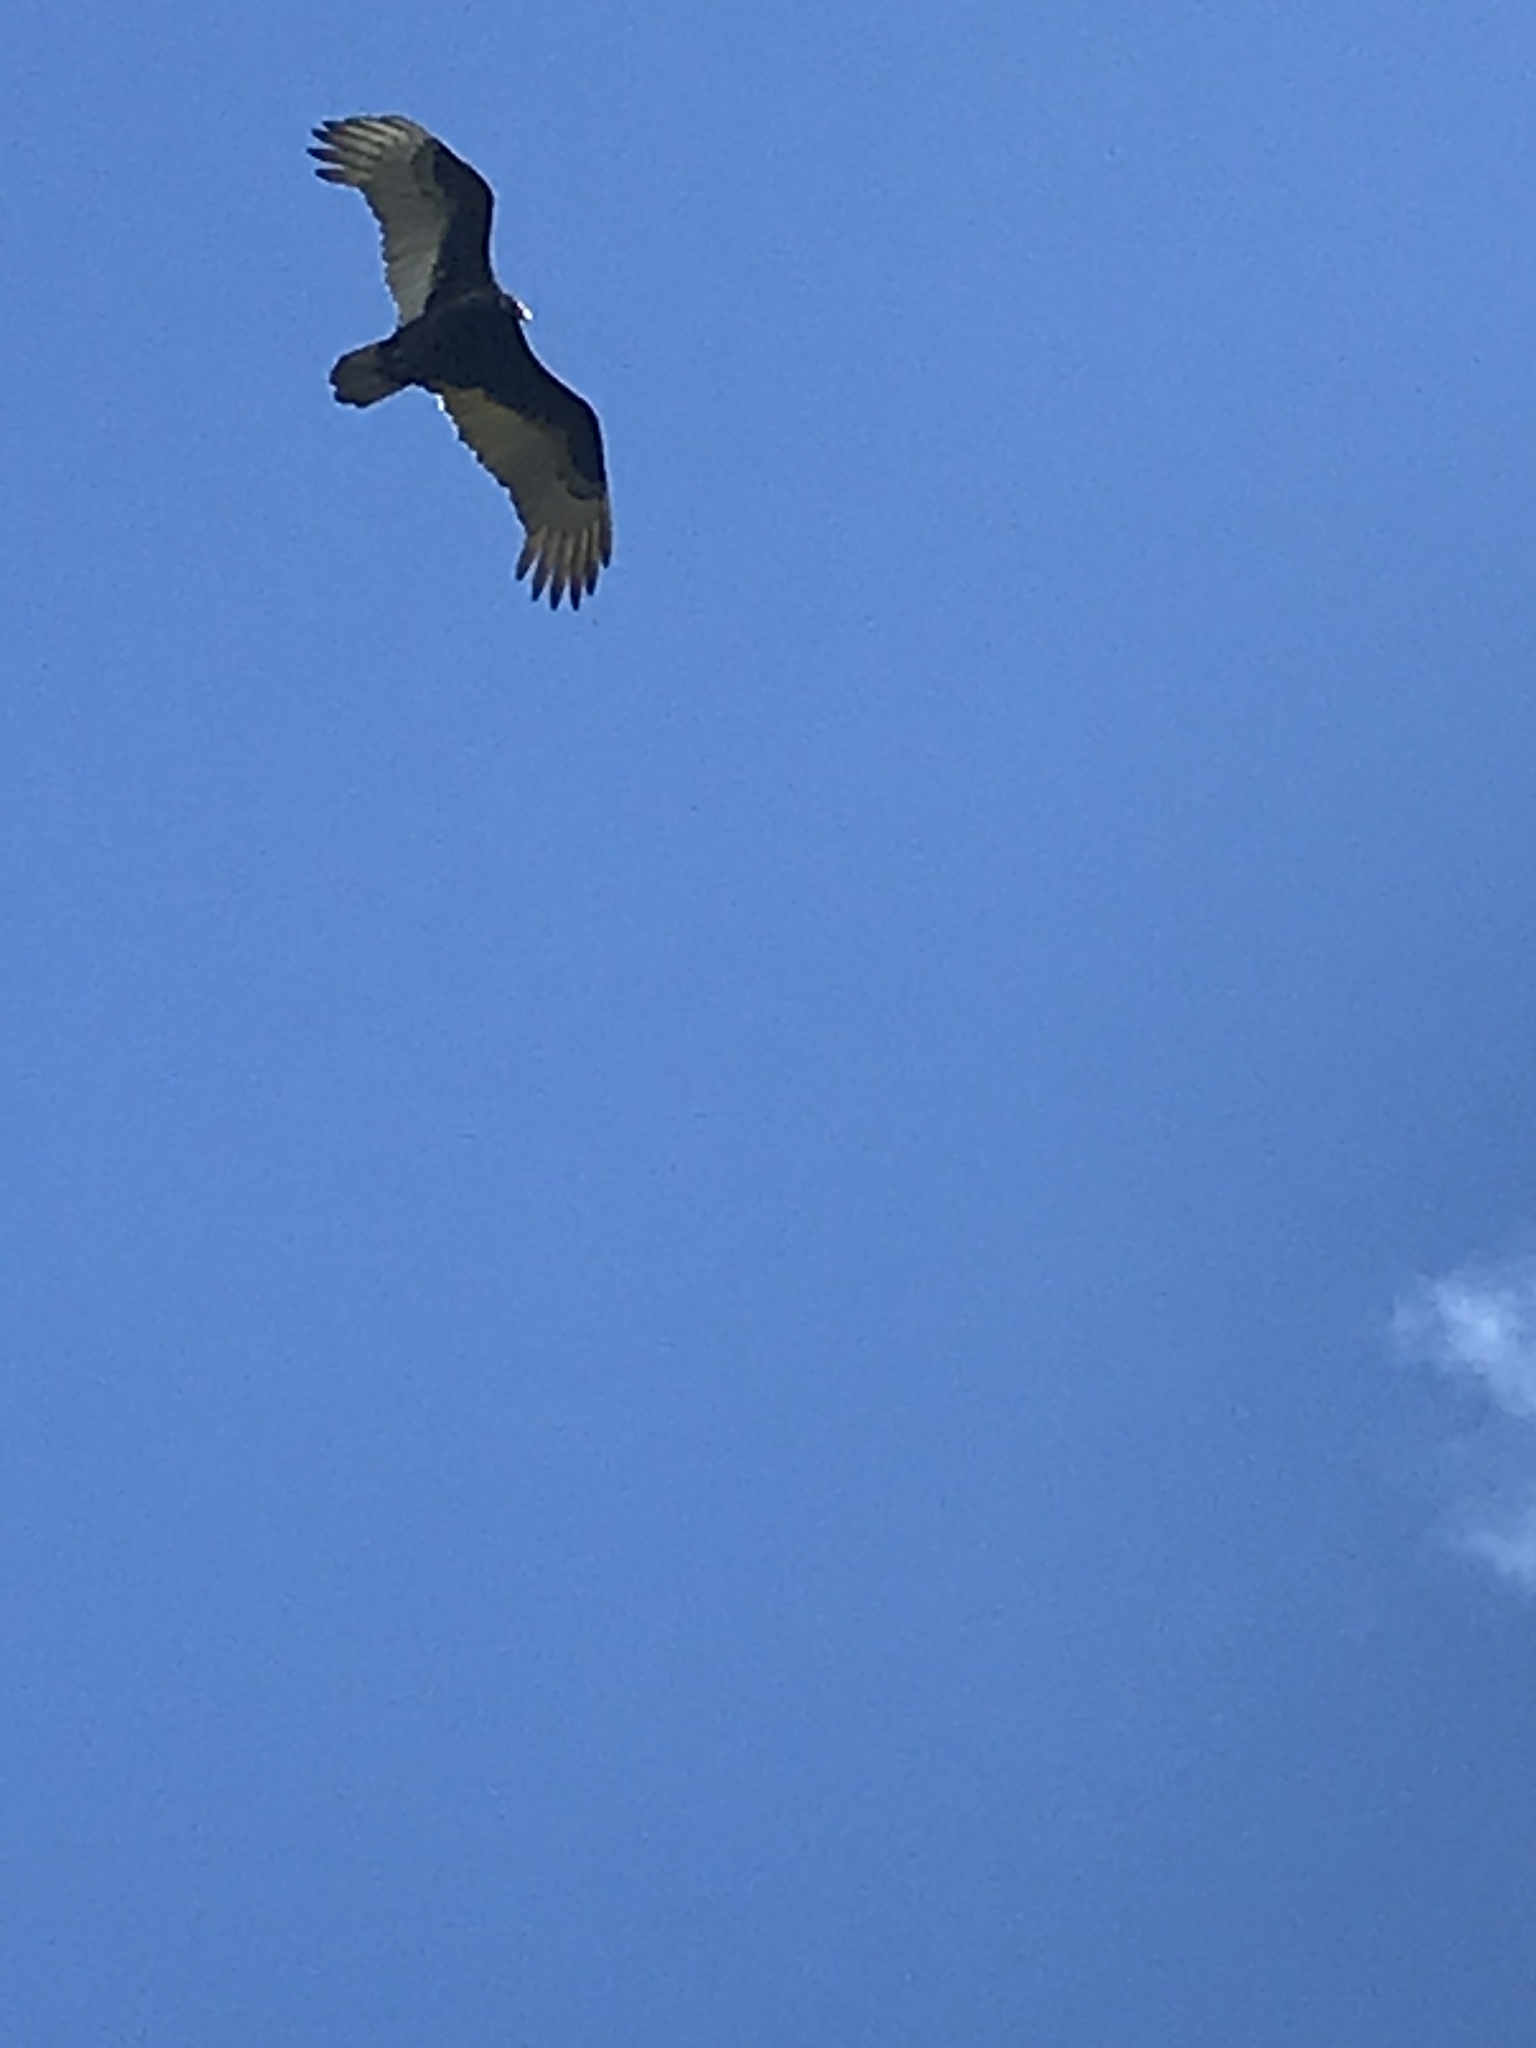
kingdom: Animalia
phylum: Chordata
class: Aves
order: Accipitriformes
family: Cathartidae
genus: Cathartes
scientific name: Cathartes aura
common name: Turkey vulture
